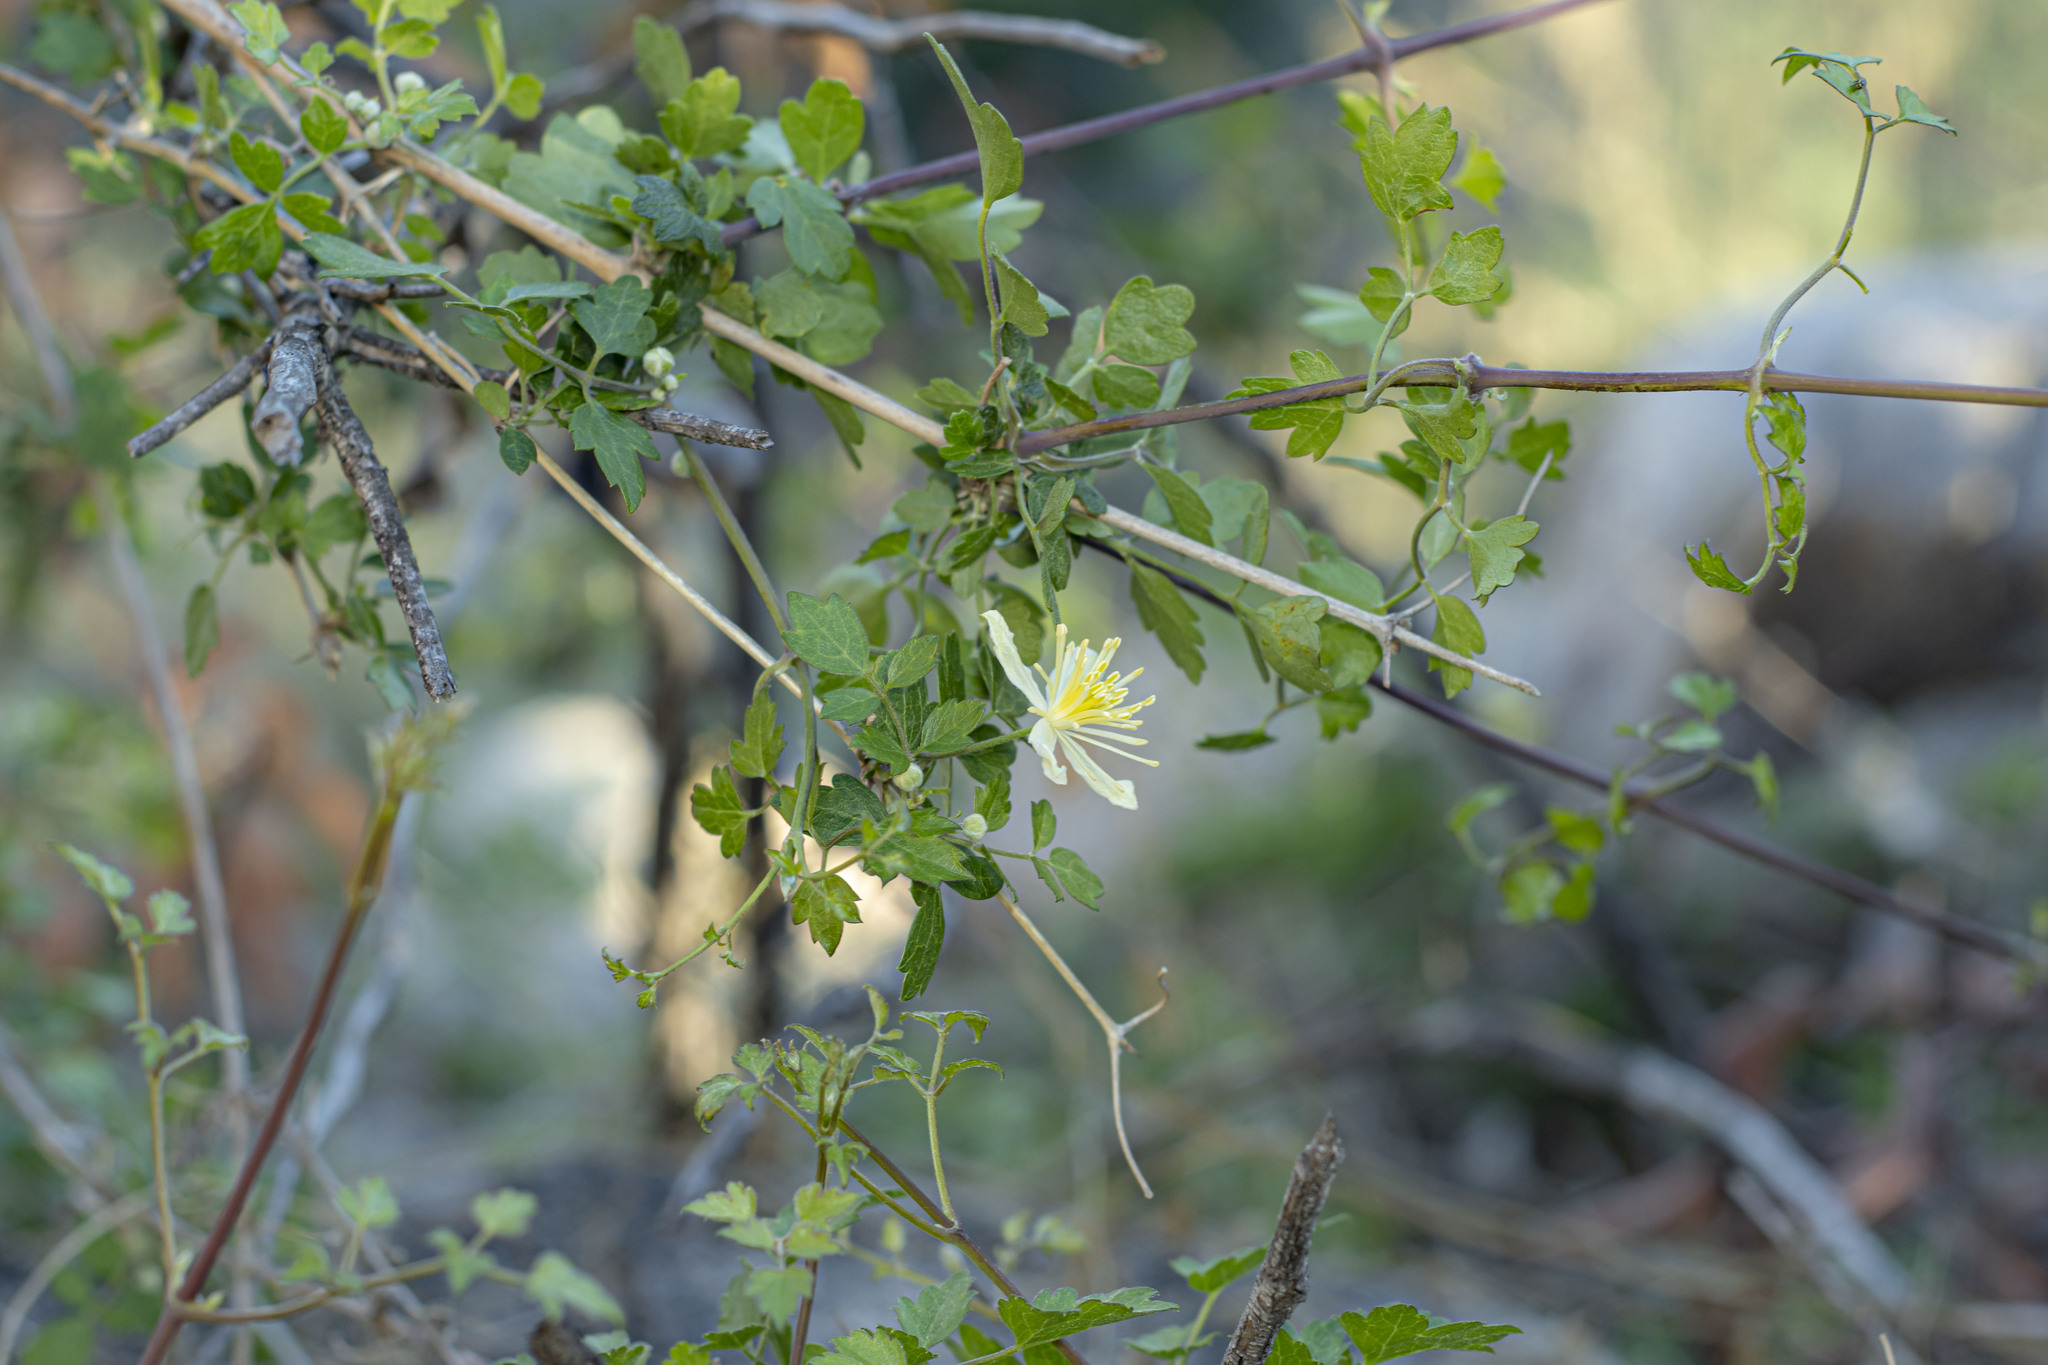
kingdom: Plantae
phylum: Tracheophyta
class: Magnoliopsida
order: Ranunculales
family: Ranunculaceae
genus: Clematis
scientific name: Clematis pauciflora
